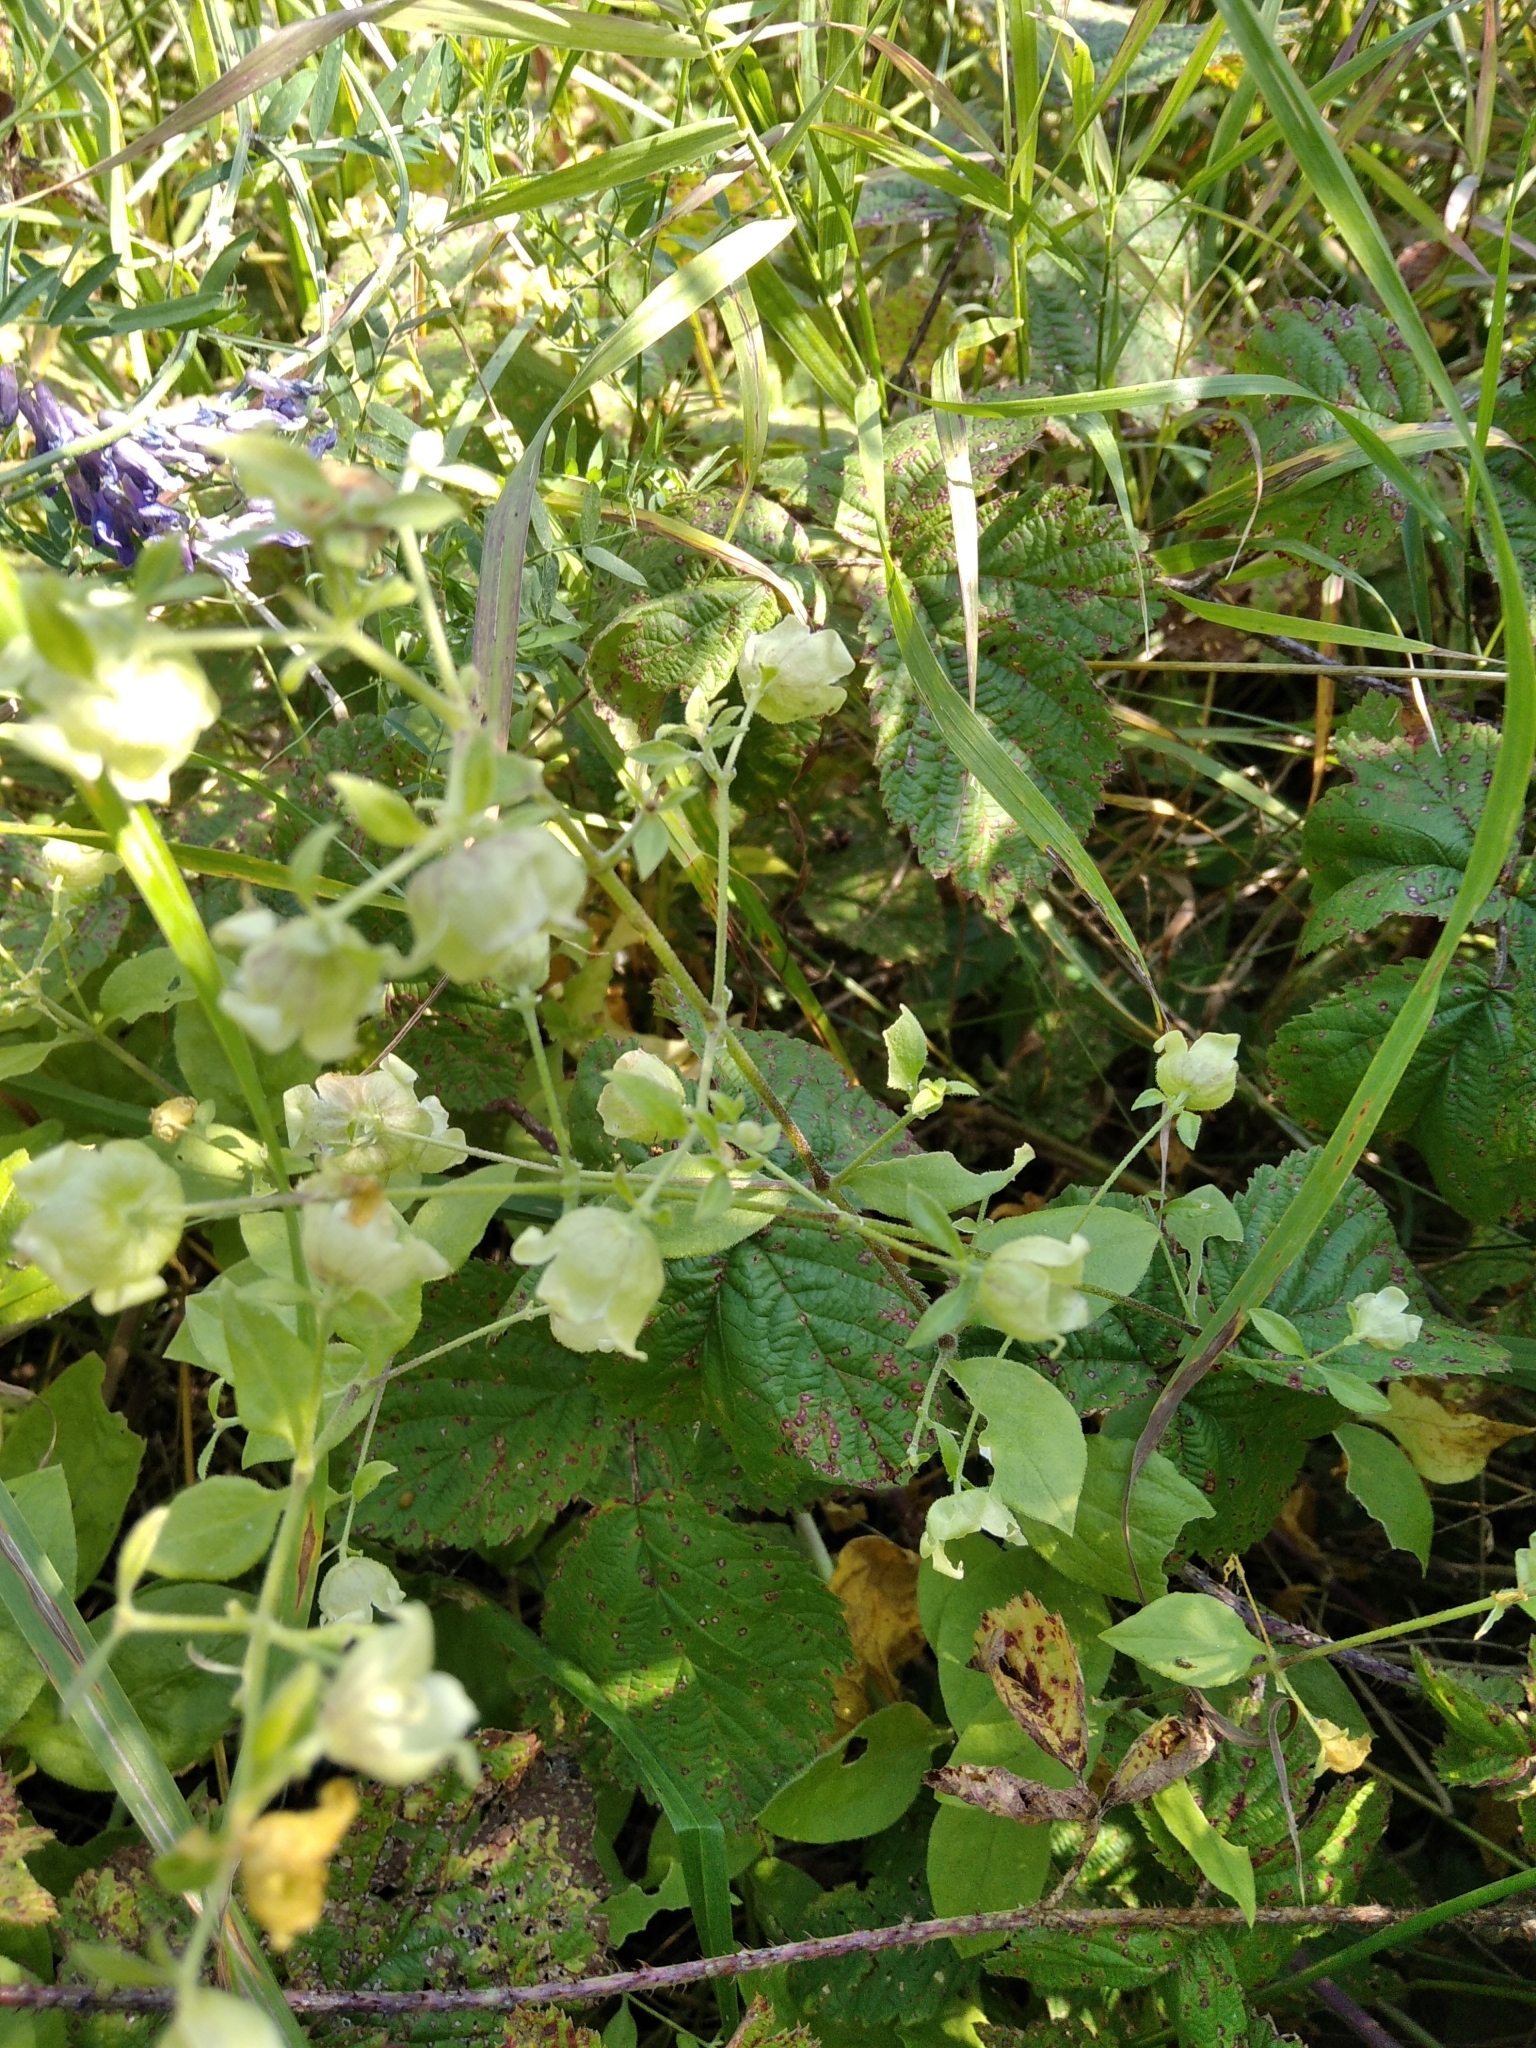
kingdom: Plantae
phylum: Tracheophyta
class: Magnoliopsida
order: Caryophyllales
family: Caryophyllaceae
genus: Silene
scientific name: Silene baccifera
